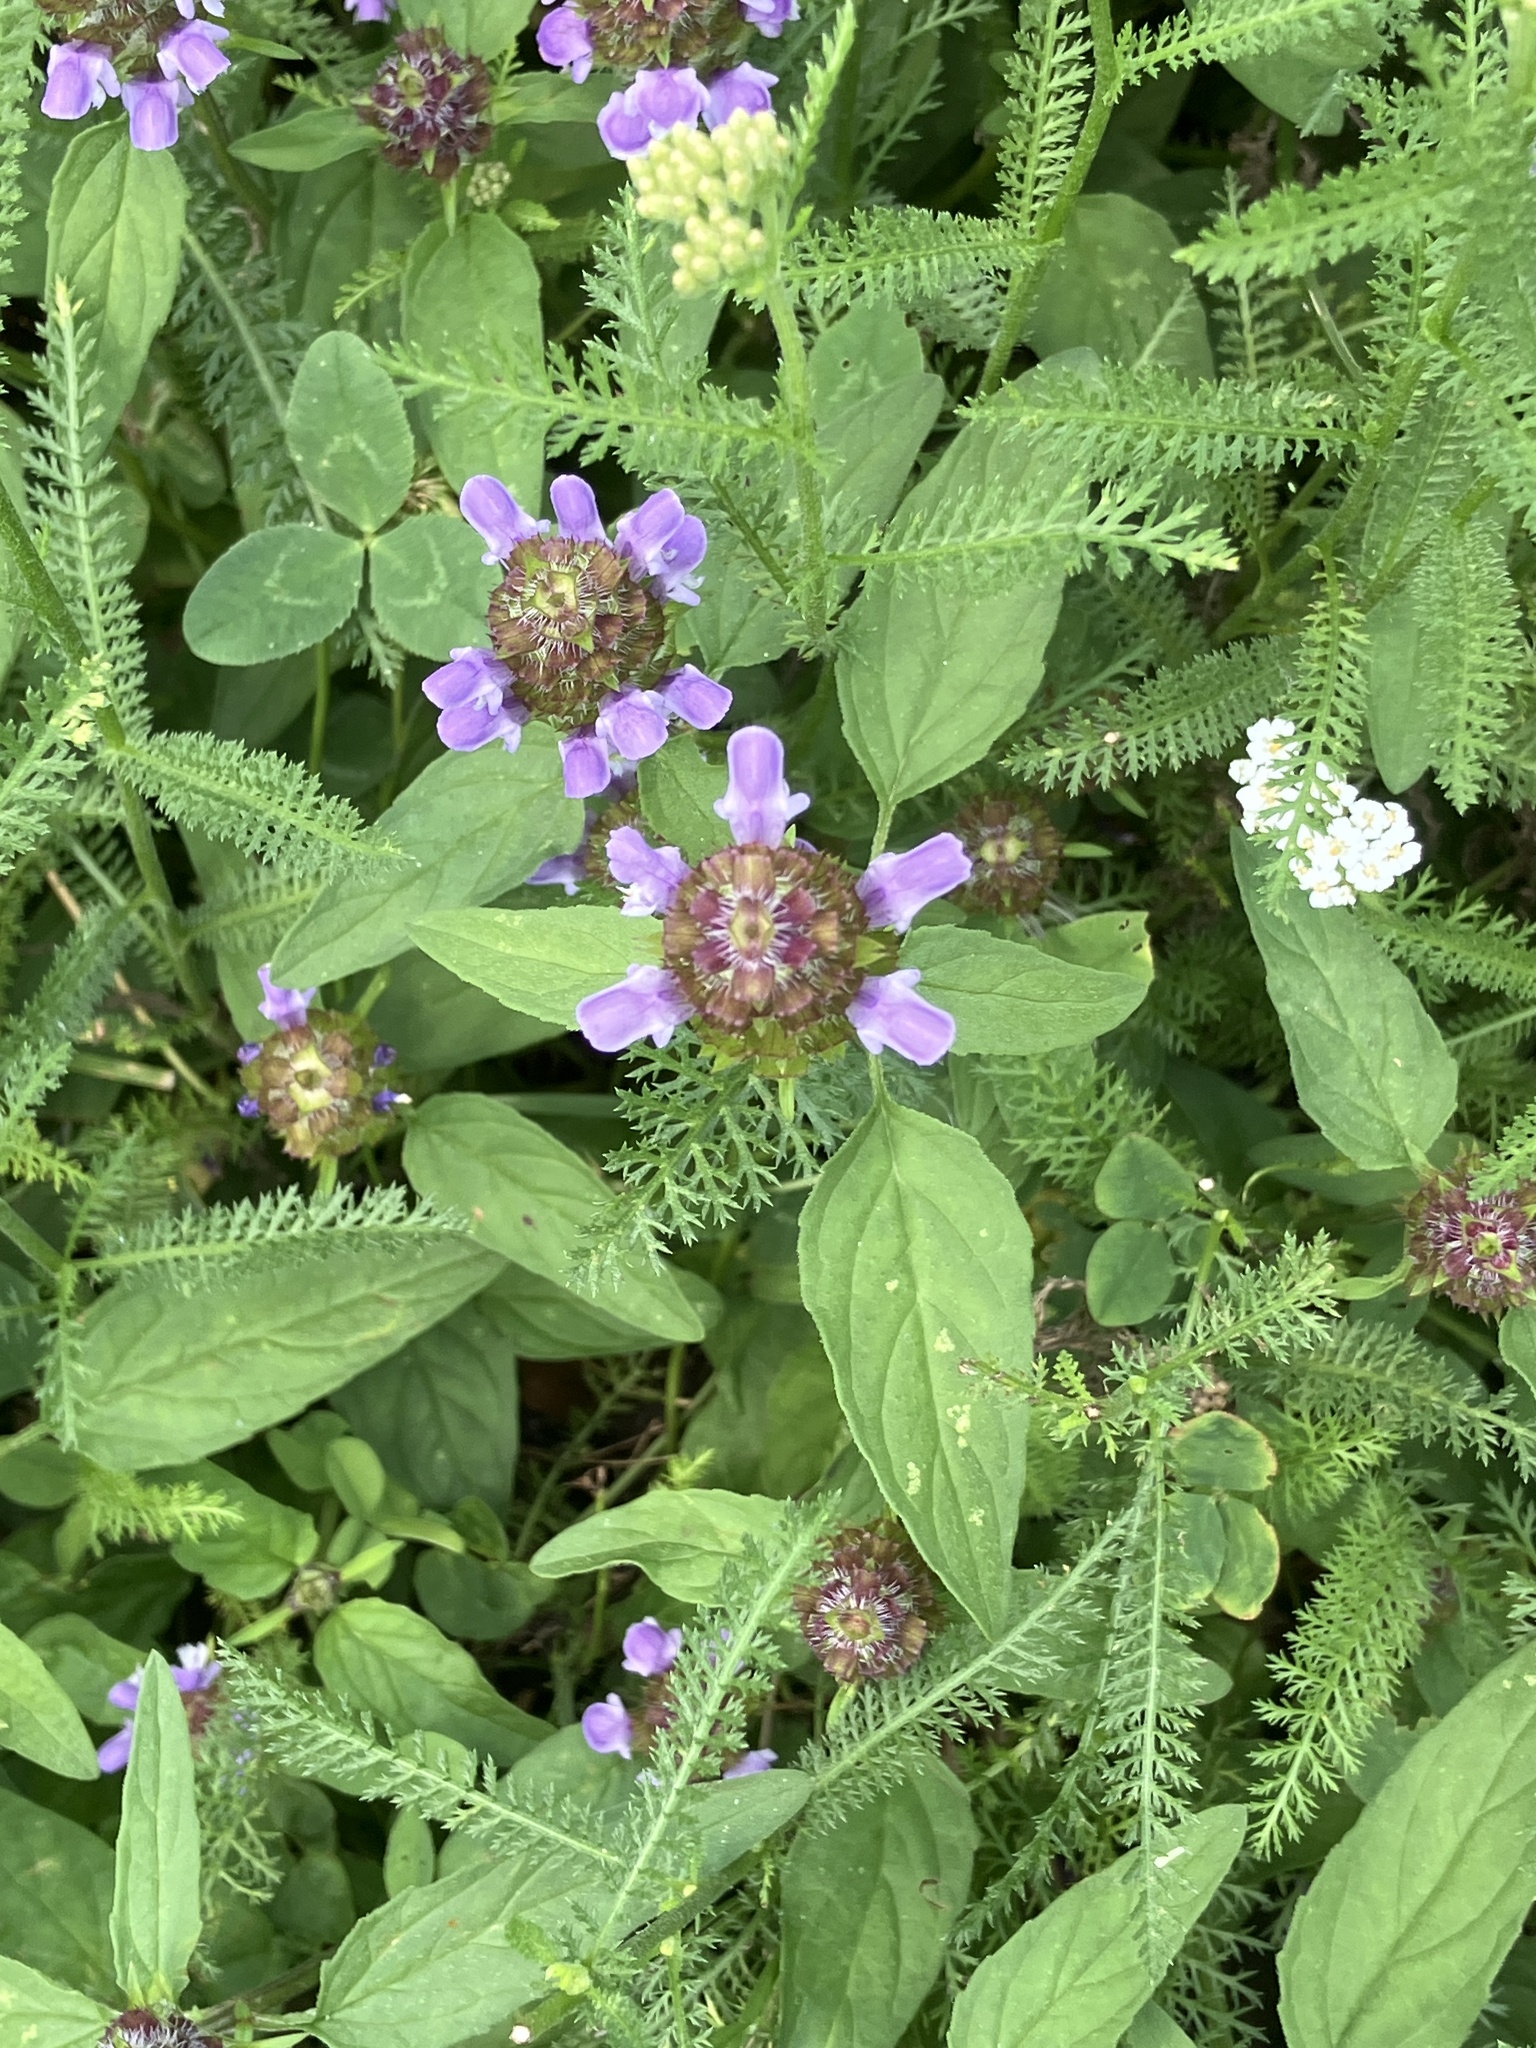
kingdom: Plantae
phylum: Tracheophyta
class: Magnoliopsida
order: Lamiales
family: Lamiaceae
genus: Prunella
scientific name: Prunella vulgaris
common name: Heal-all
